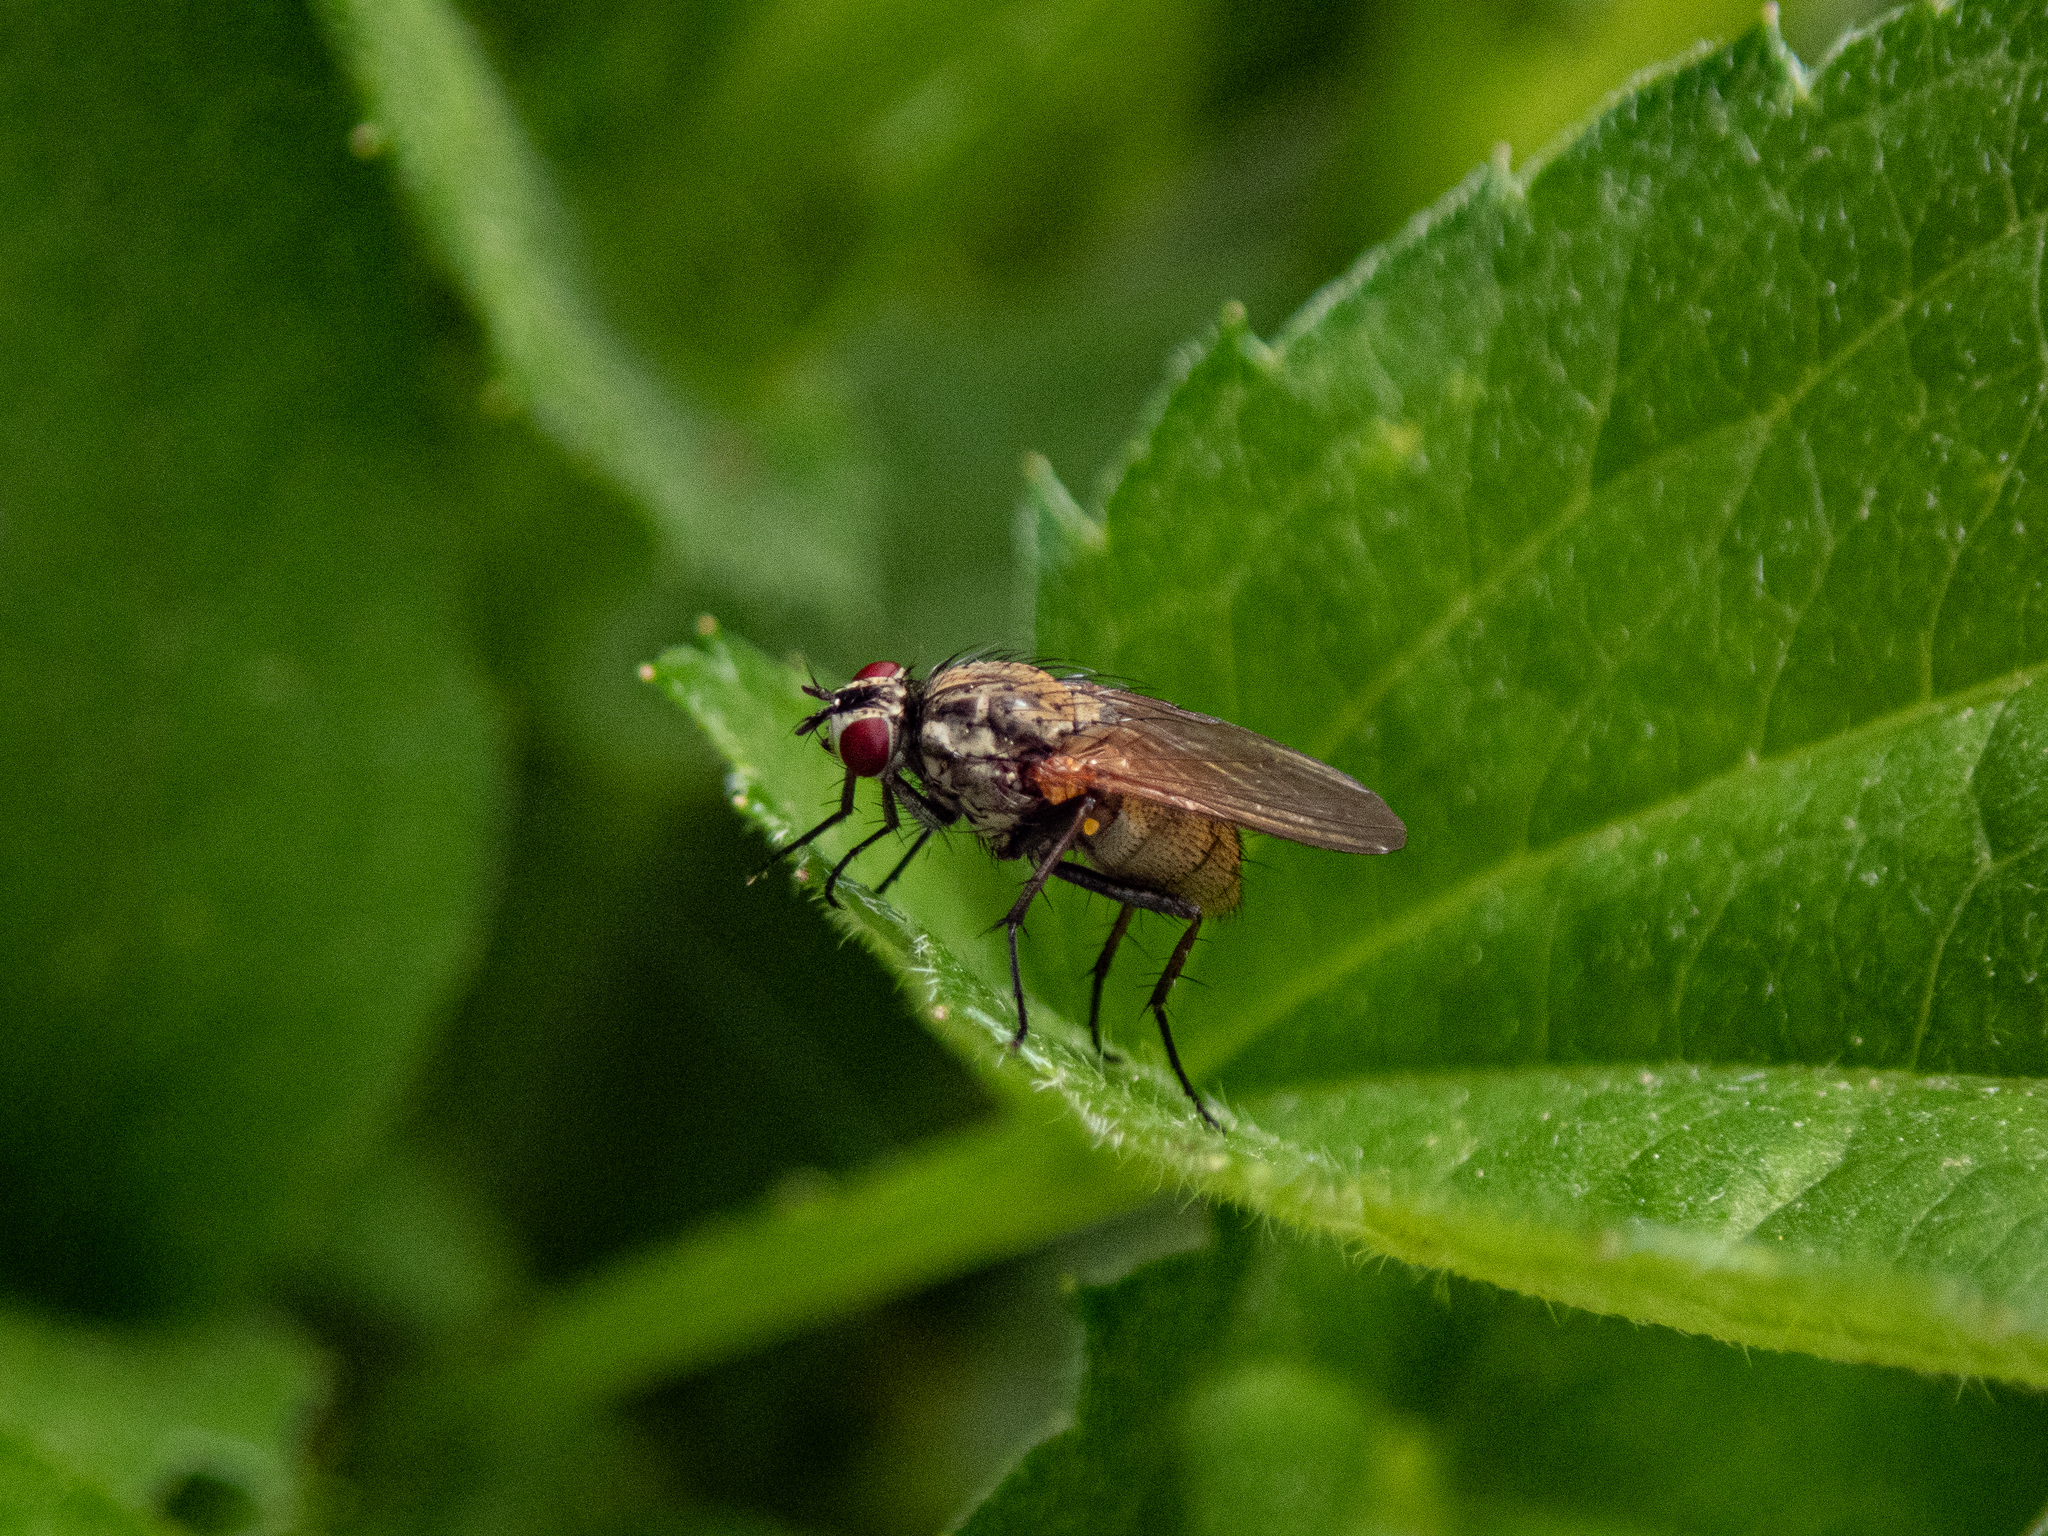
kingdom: Animalia
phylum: Arthropoda
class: Insecta
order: Diptera
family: Anthomyiidae
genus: Hydrophoria
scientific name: Hydrophoria lancifer
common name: Root-maggot fly
